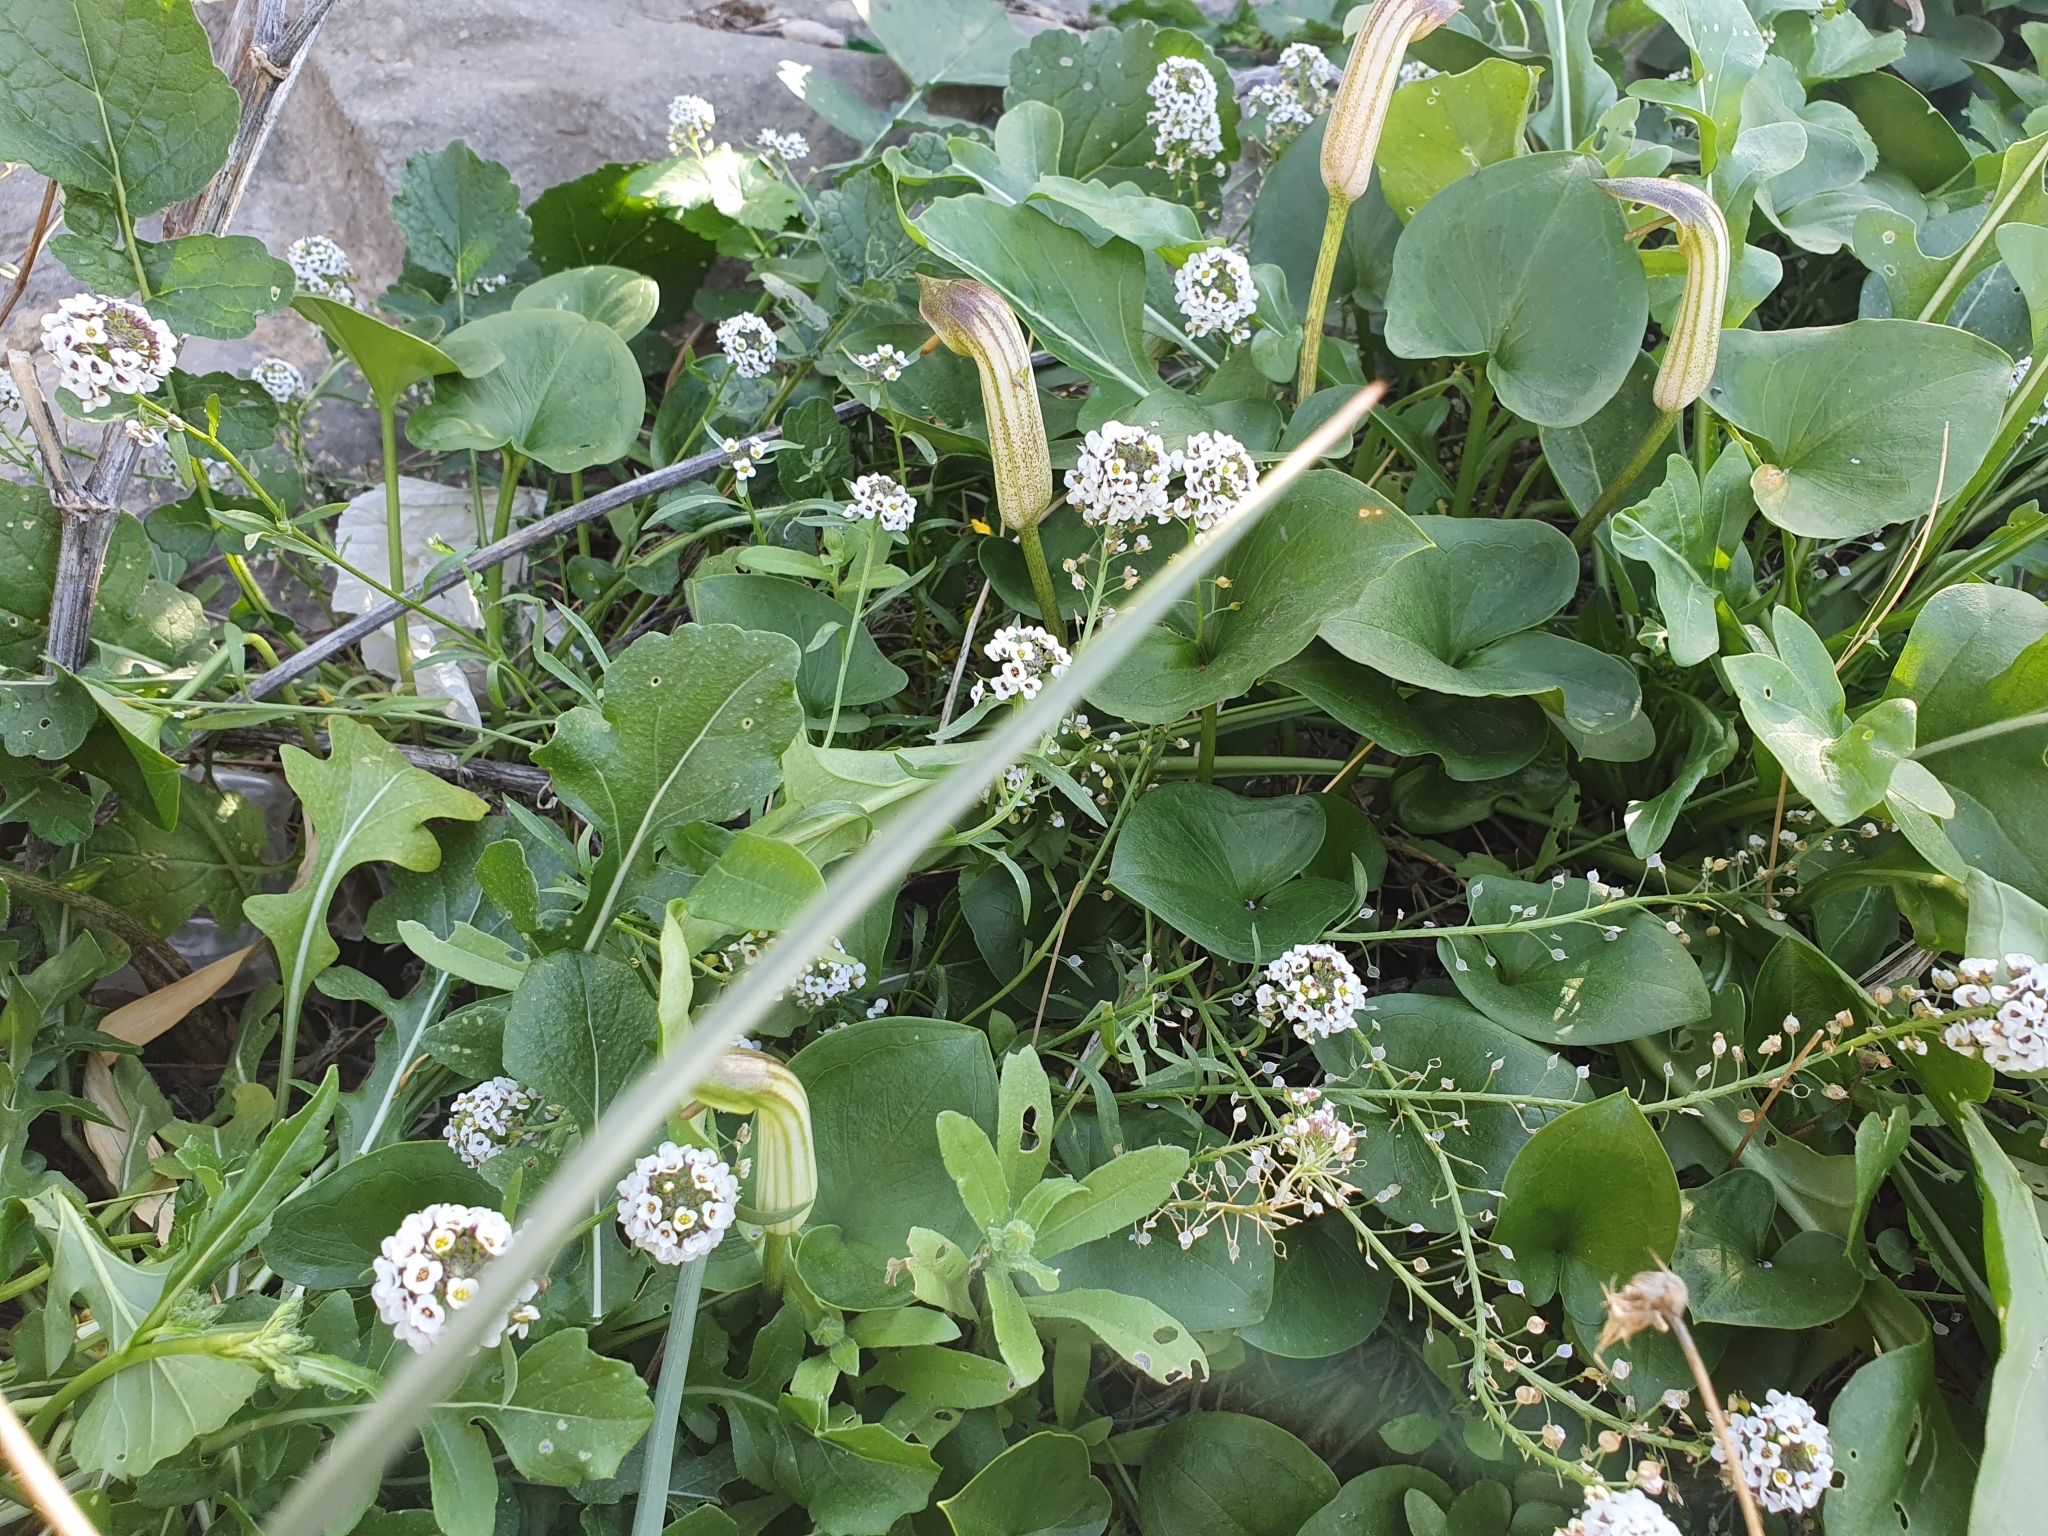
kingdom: Plantae
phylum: Tracheophyta
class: Magnoliopsida
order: Brassicales
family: Brassicaceae
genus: Lobularia
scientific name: Lobularia maritima
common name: Sweet alison
